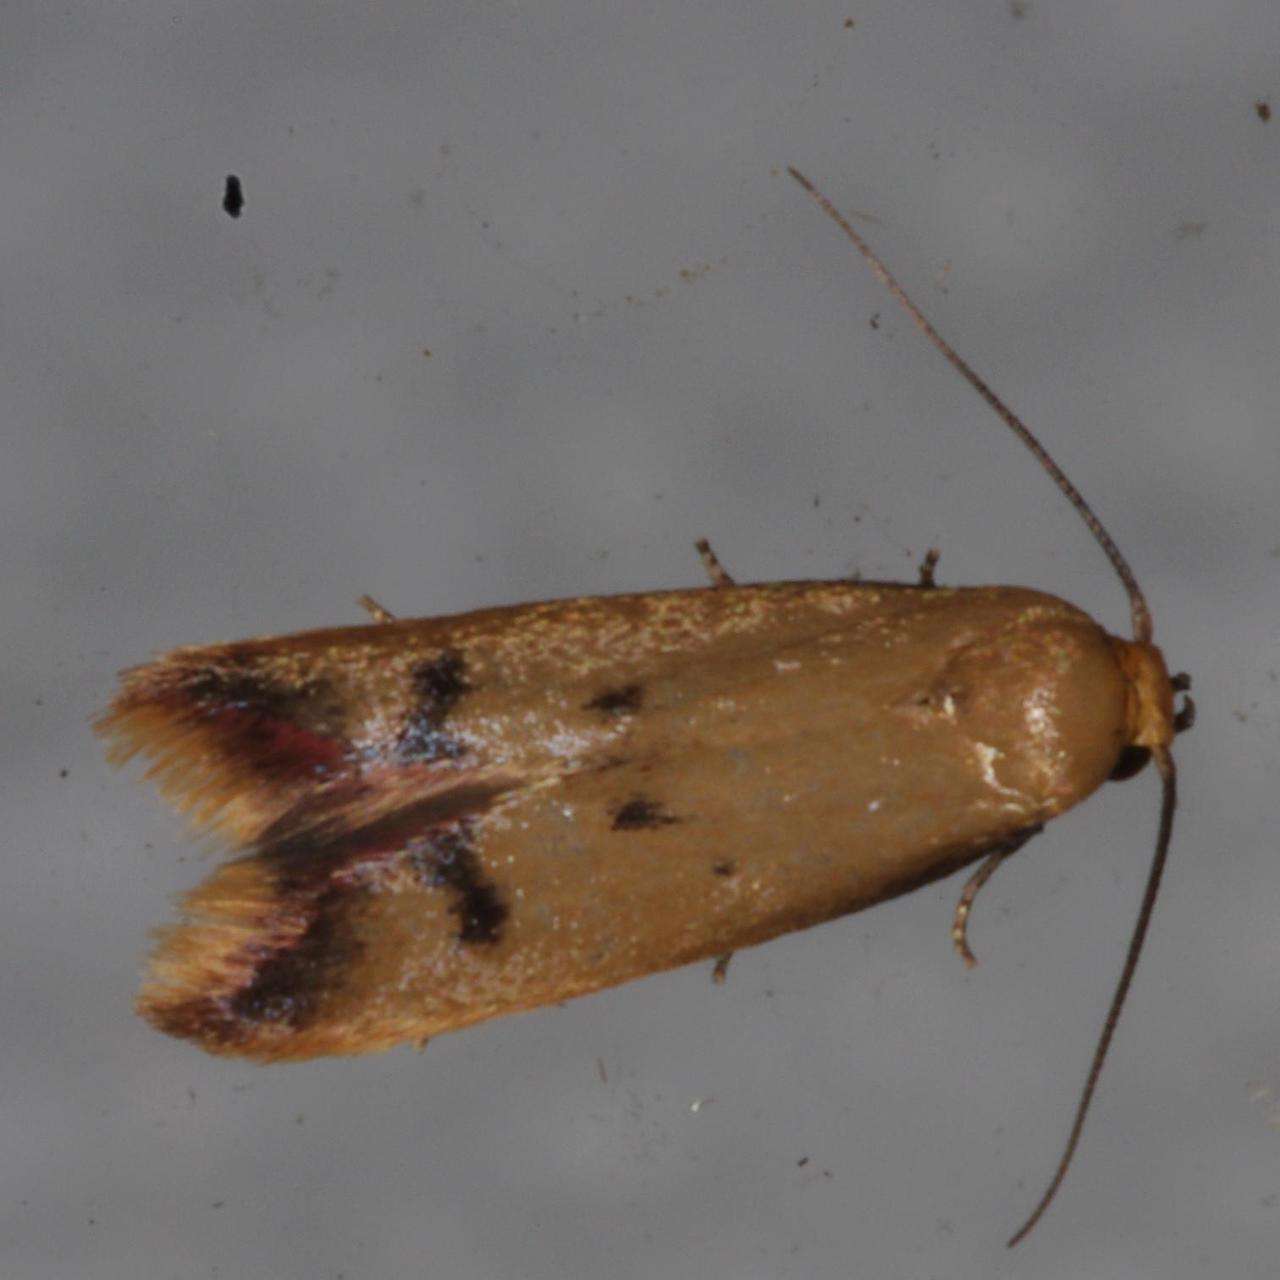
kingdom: Animalia
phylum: Arthropoda
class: Insecta
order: Lepidoptera
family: Oecophoridae
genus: Tachystola
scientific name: Tachystola hemisema
